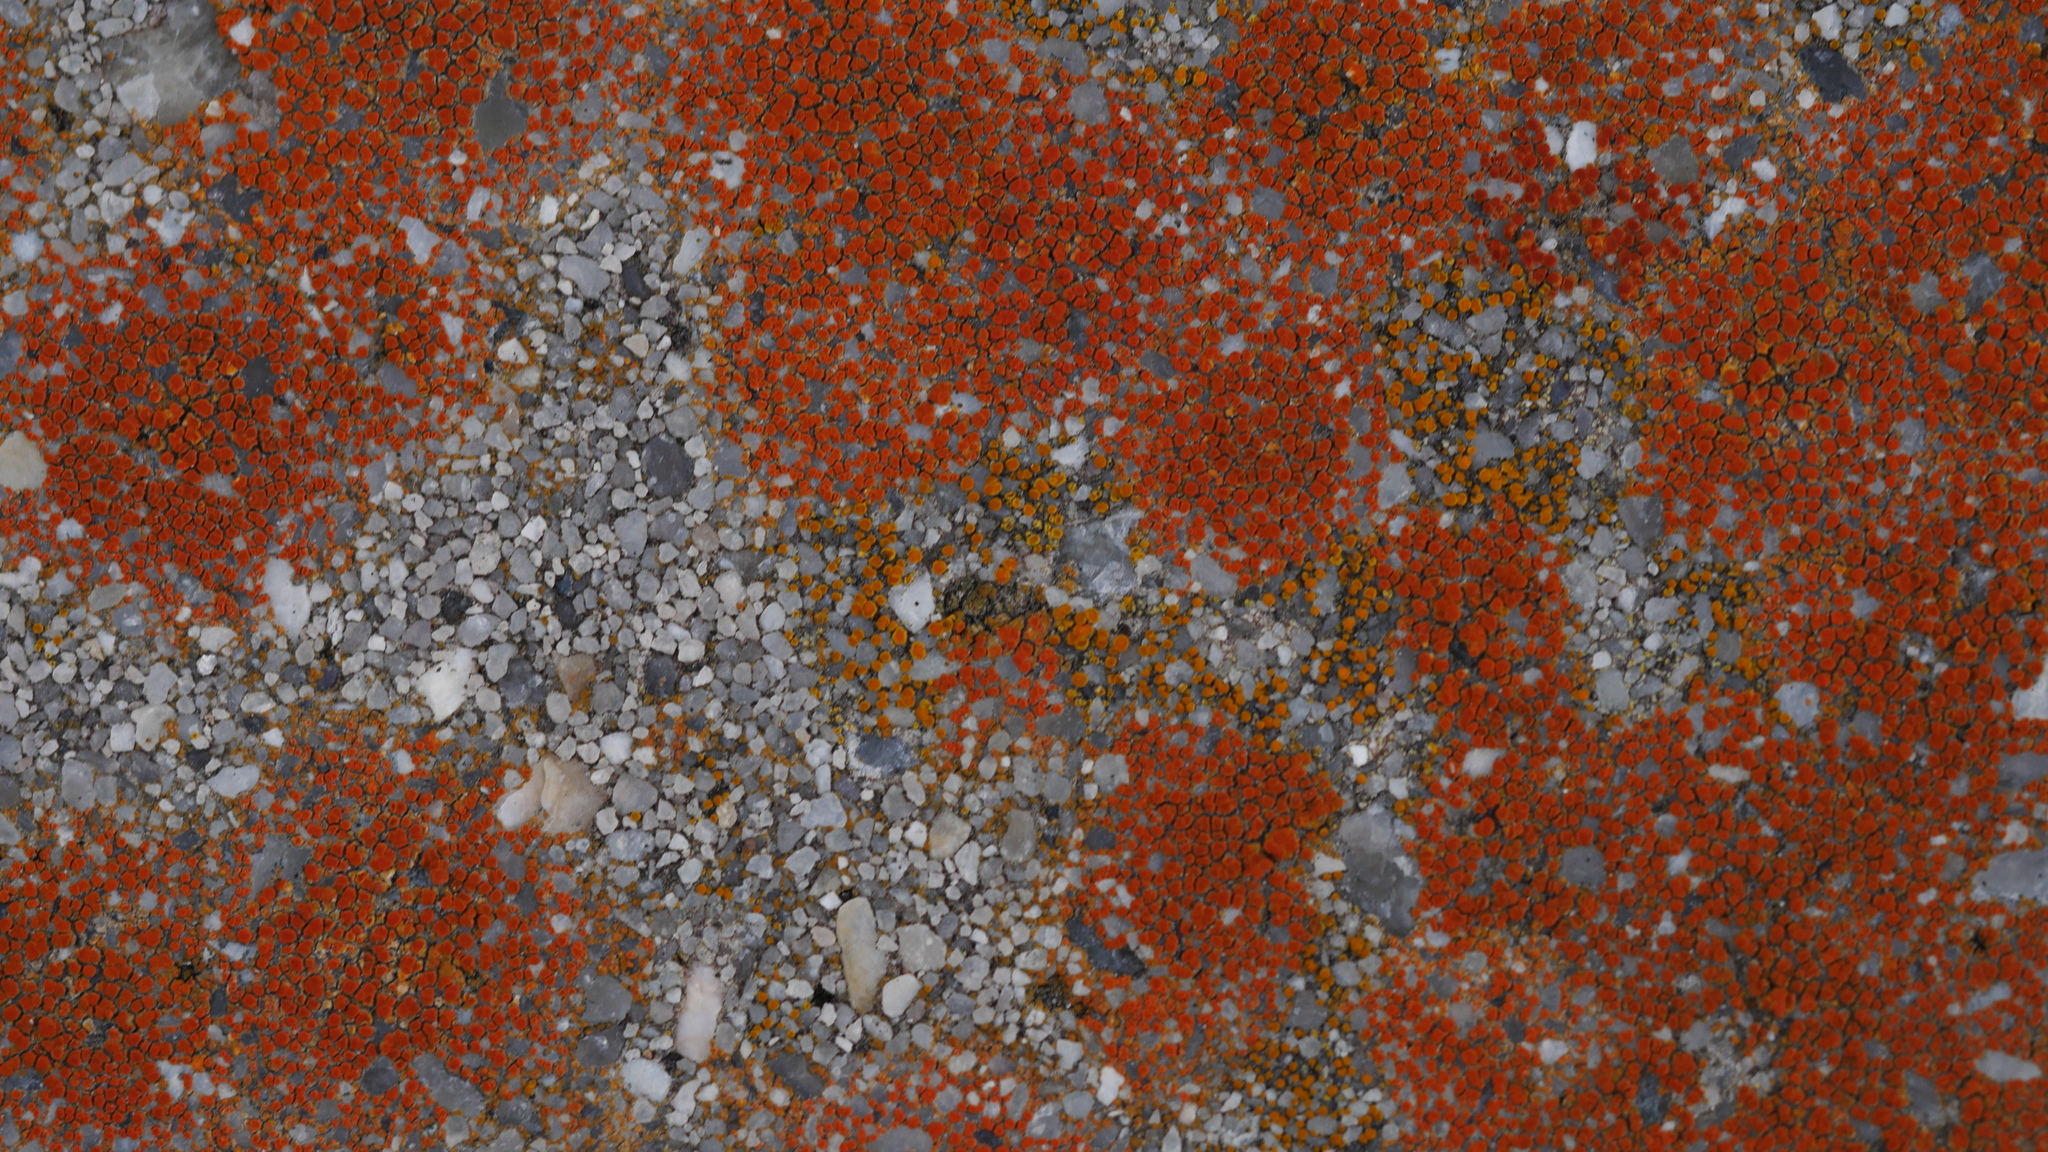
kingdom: Fungi
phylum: Ascomycota
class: Lecanoromycetes
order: Teloschistales
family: Teloschistaceae
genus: Xanthocarpia
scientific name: Xanthocarpia feracissima
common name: Sidewalk firedot
